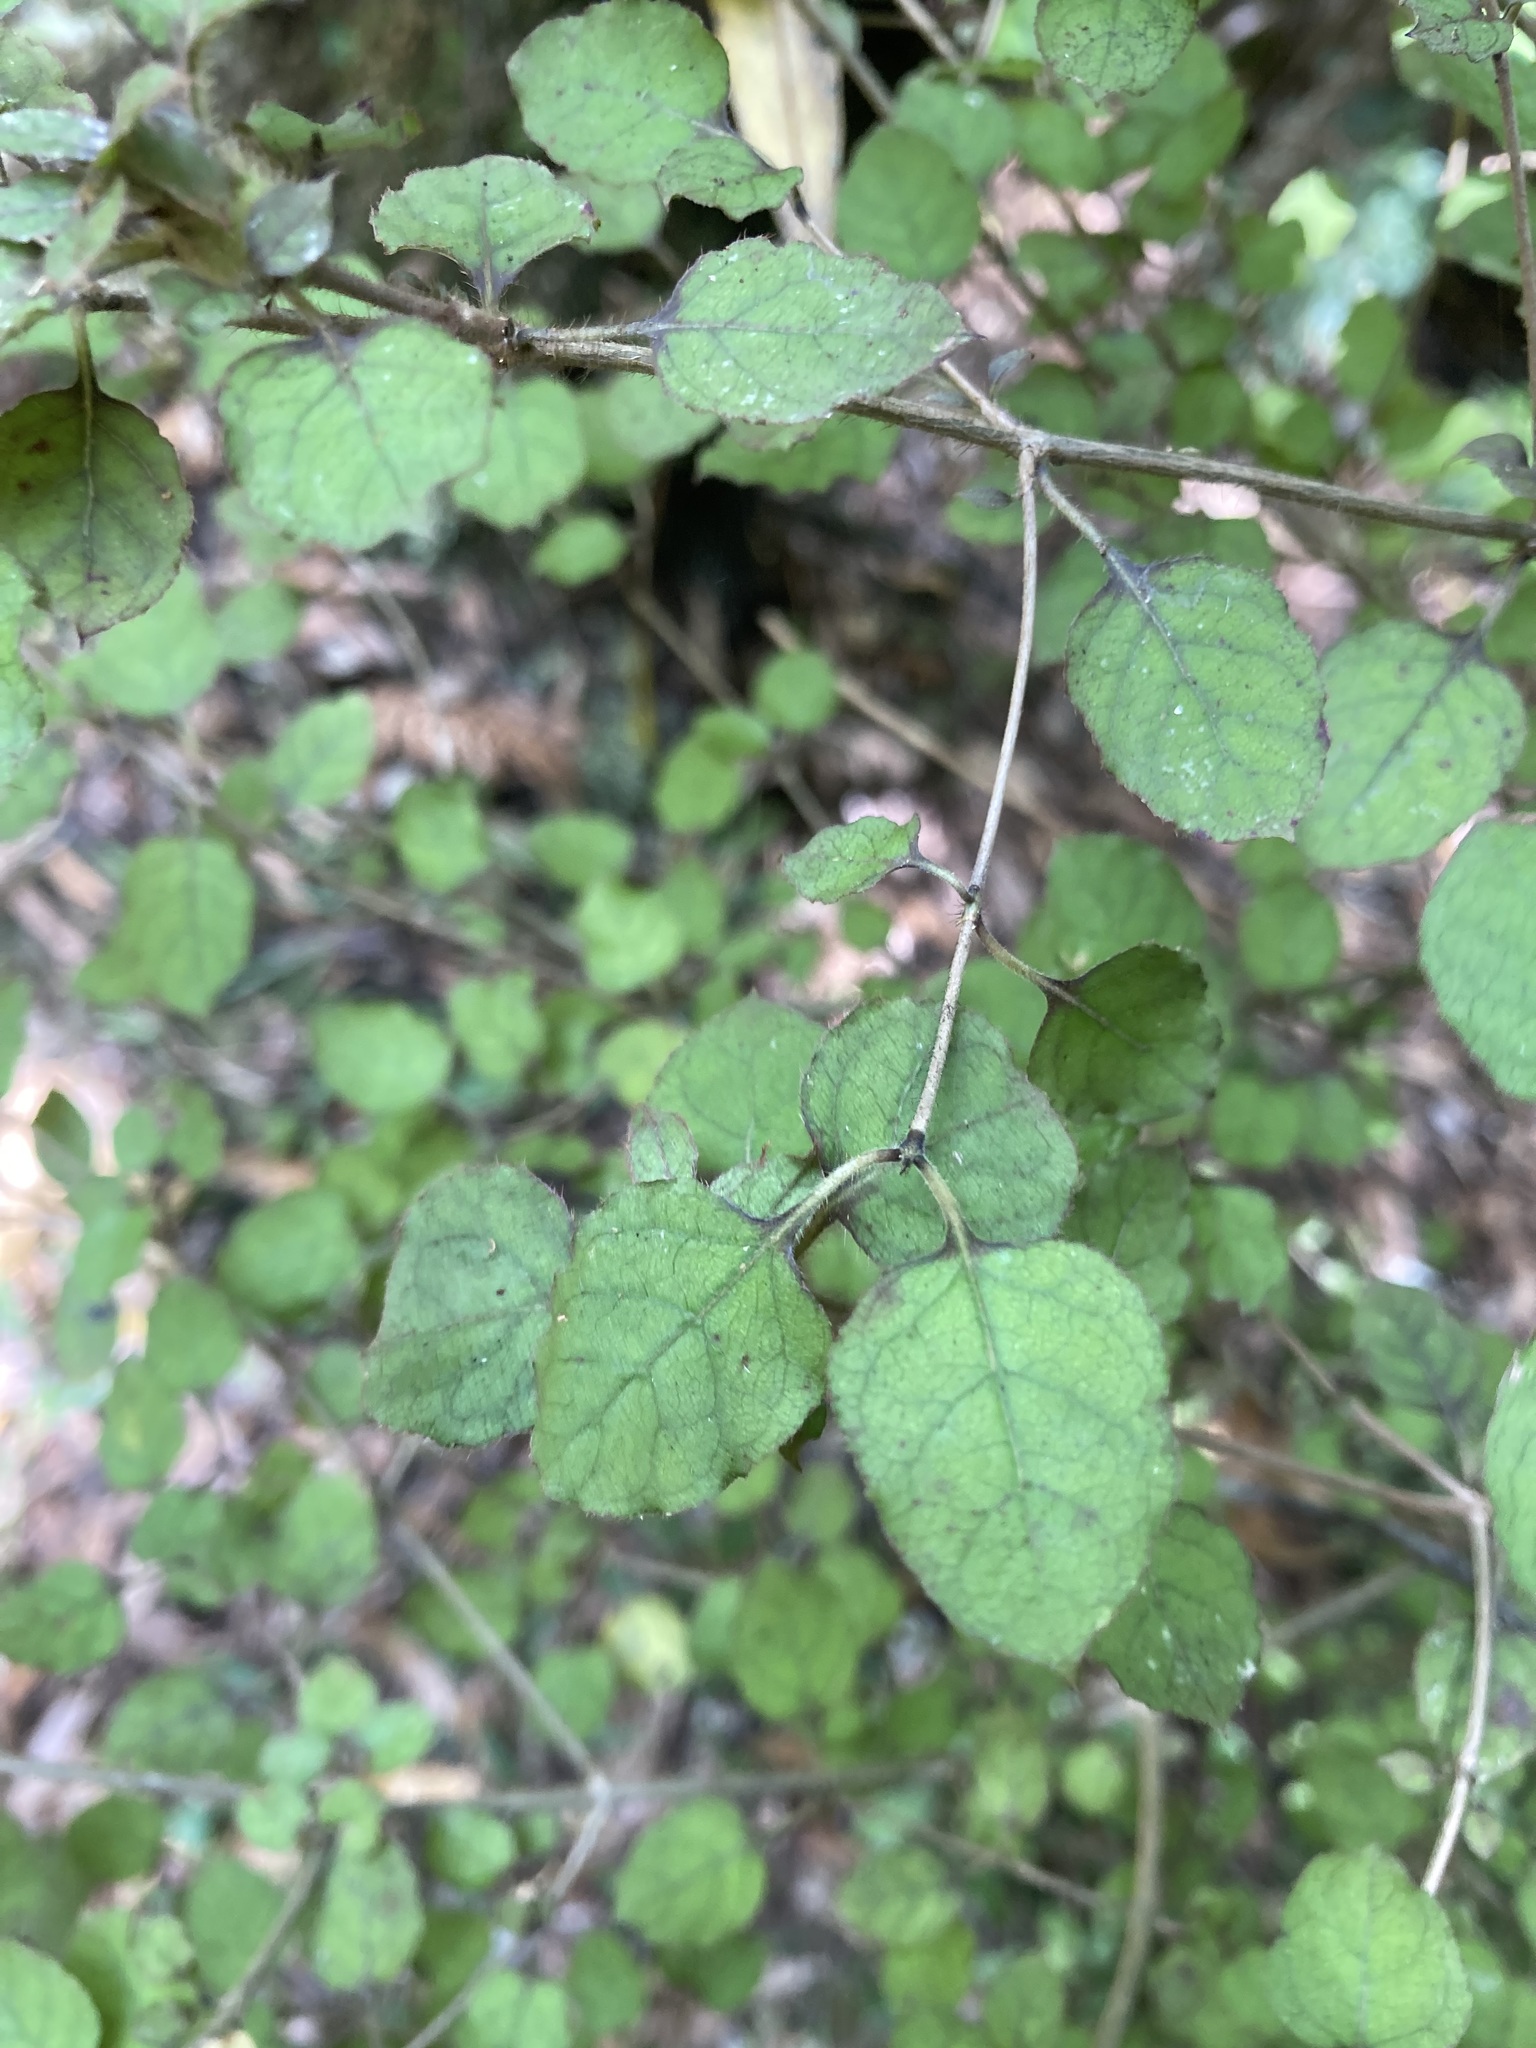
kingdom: Plantae
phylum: Tracheophyta
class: Magnoliopsida
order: Gentianales
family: Rubiaceae
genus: Coprosma
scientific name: Coprosma rotundifolia
